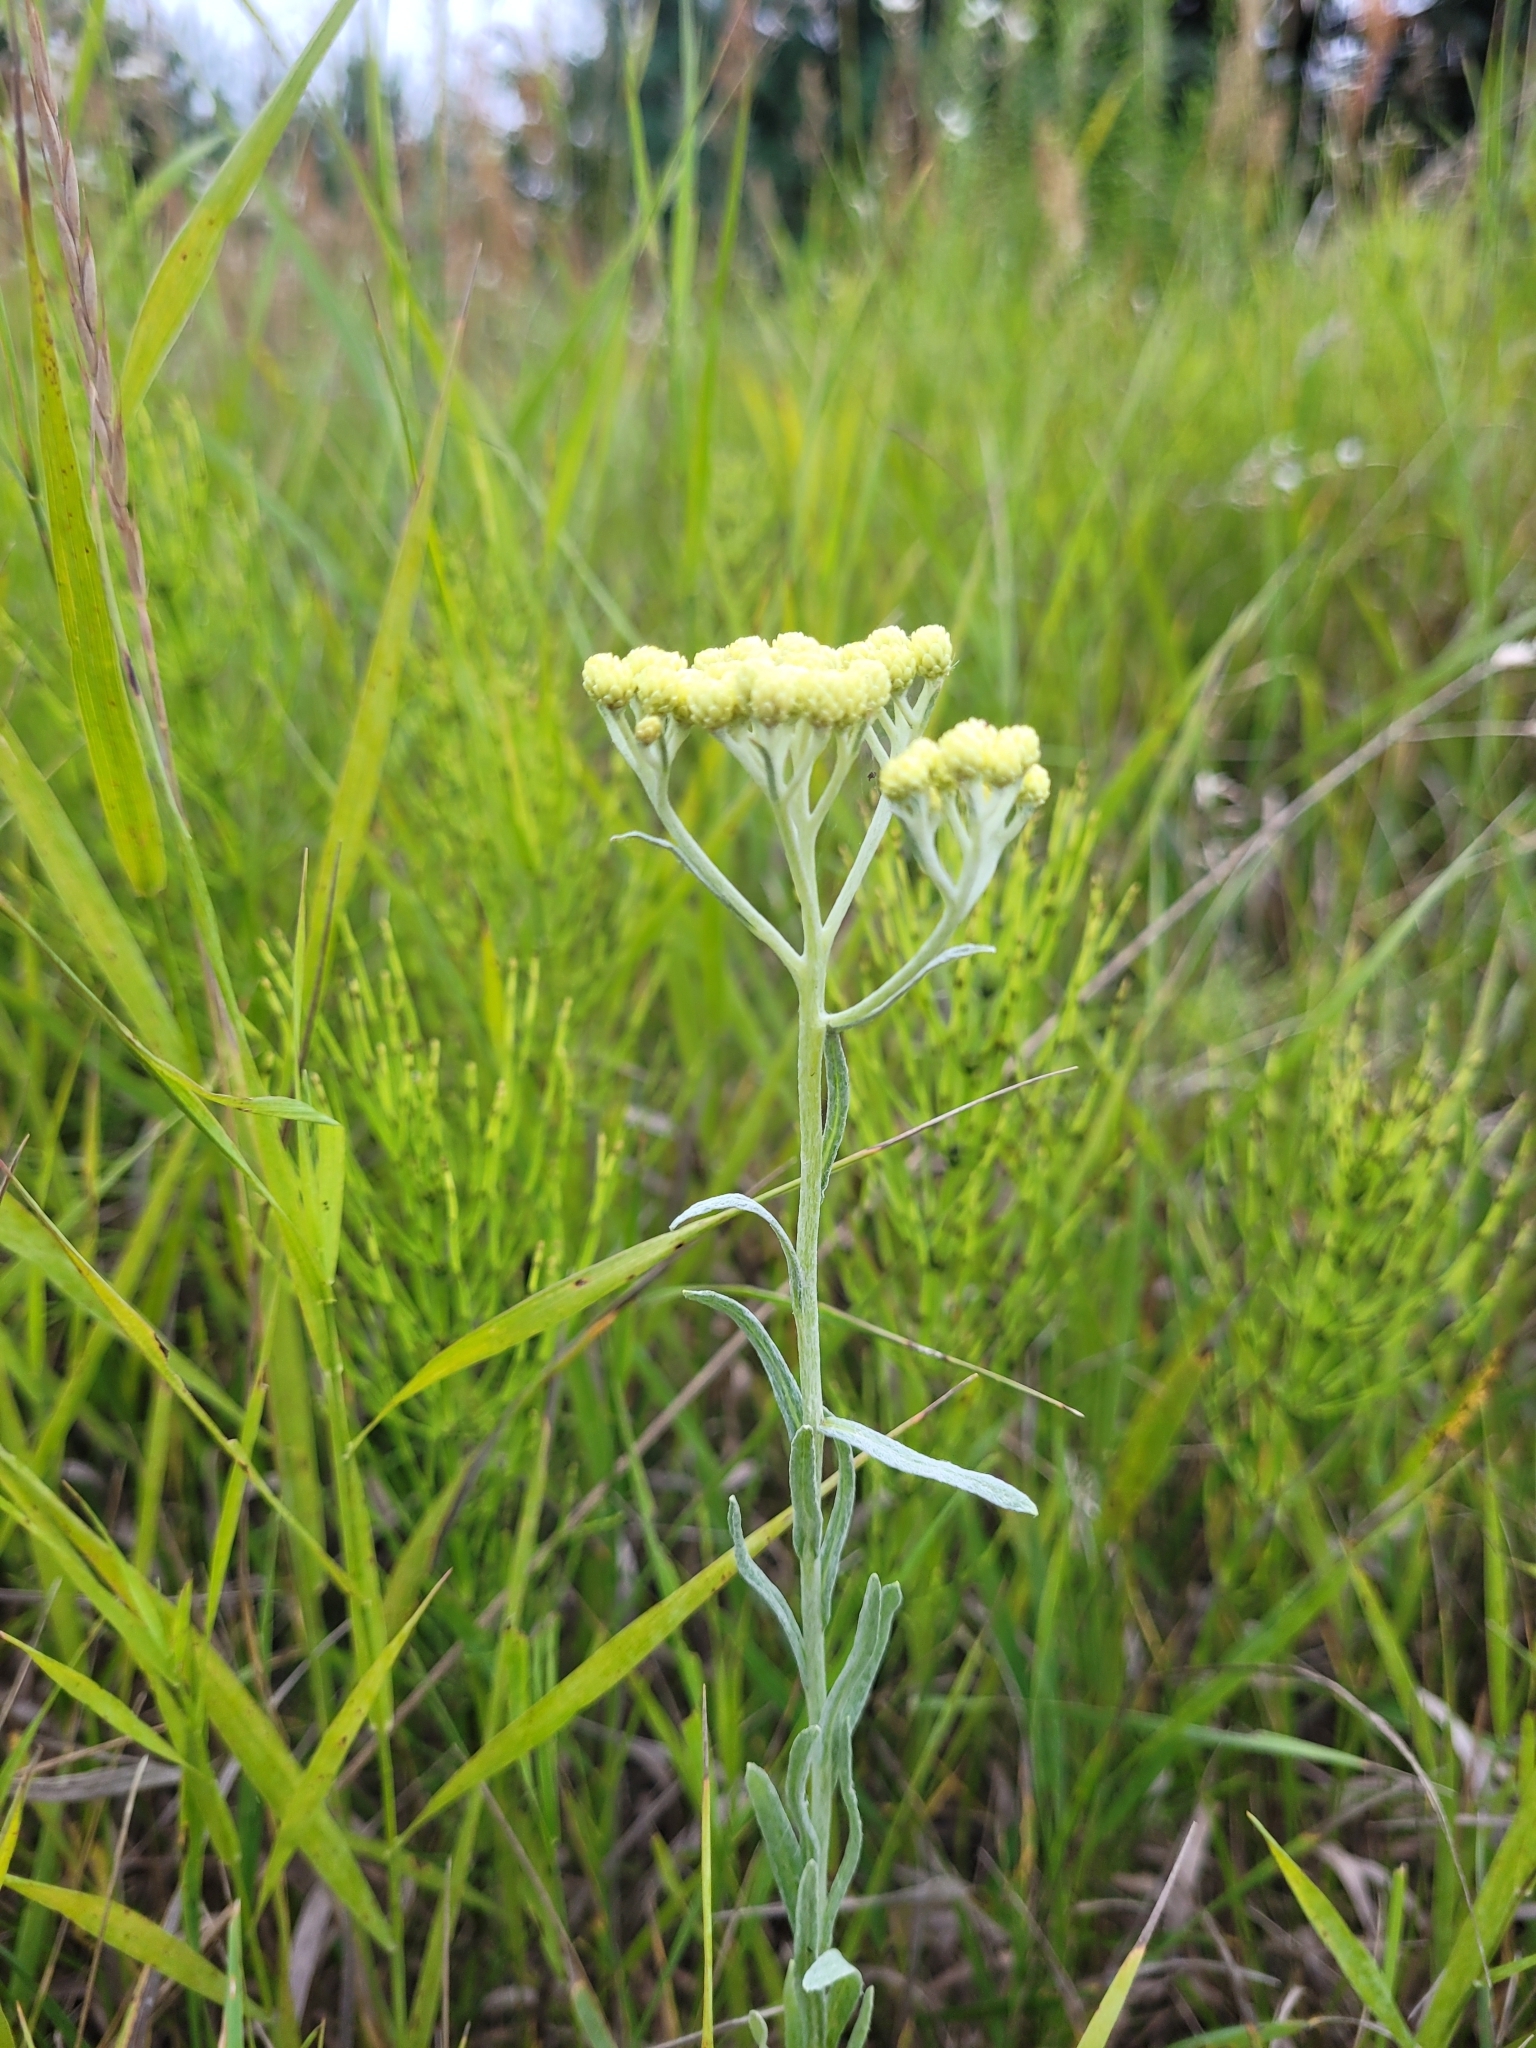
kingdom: Plantae
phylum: Tracheophyta
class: Magnoliopsida
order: Asterales
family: Asteraceae
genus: Helichrysum
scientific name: Helichrysum arenarium
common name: Strawflower
